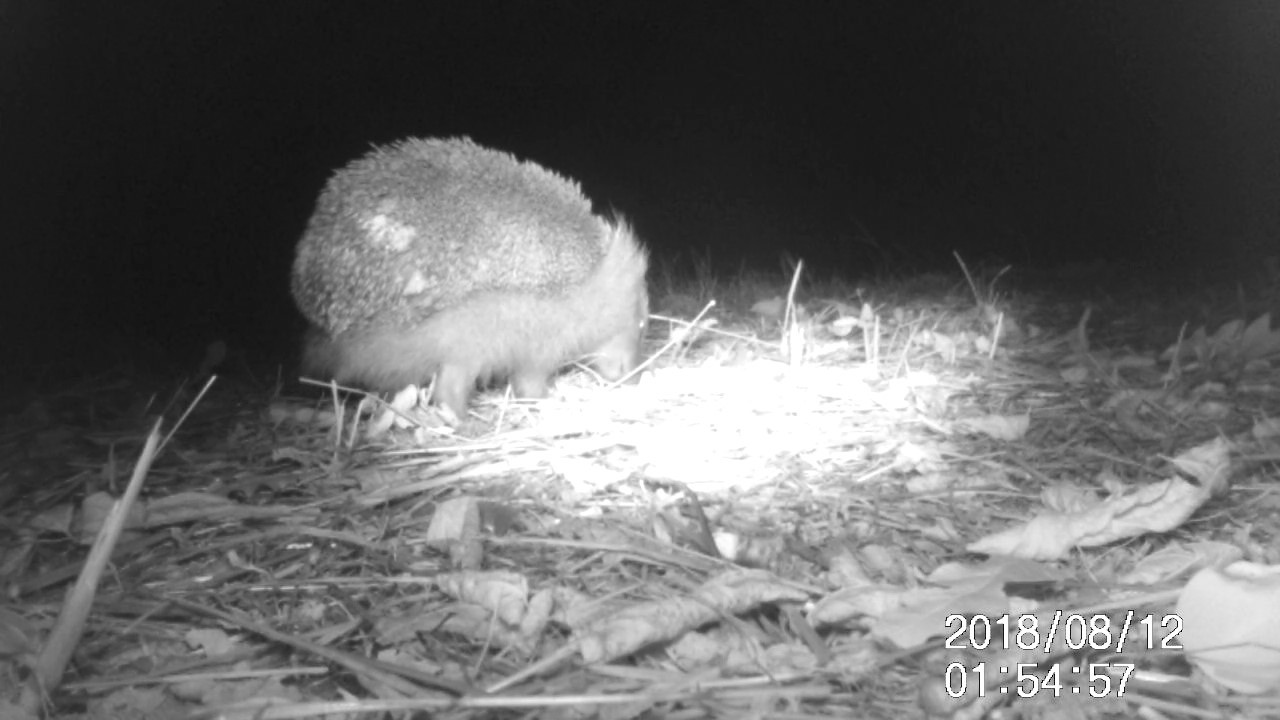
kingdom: Animalia
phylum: Chordata
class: Mammalia
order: Erinaceomorpha
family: Erinaceidae
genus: Erinaceus
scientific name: Erinaceus europaeus
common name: West european hedgehog
